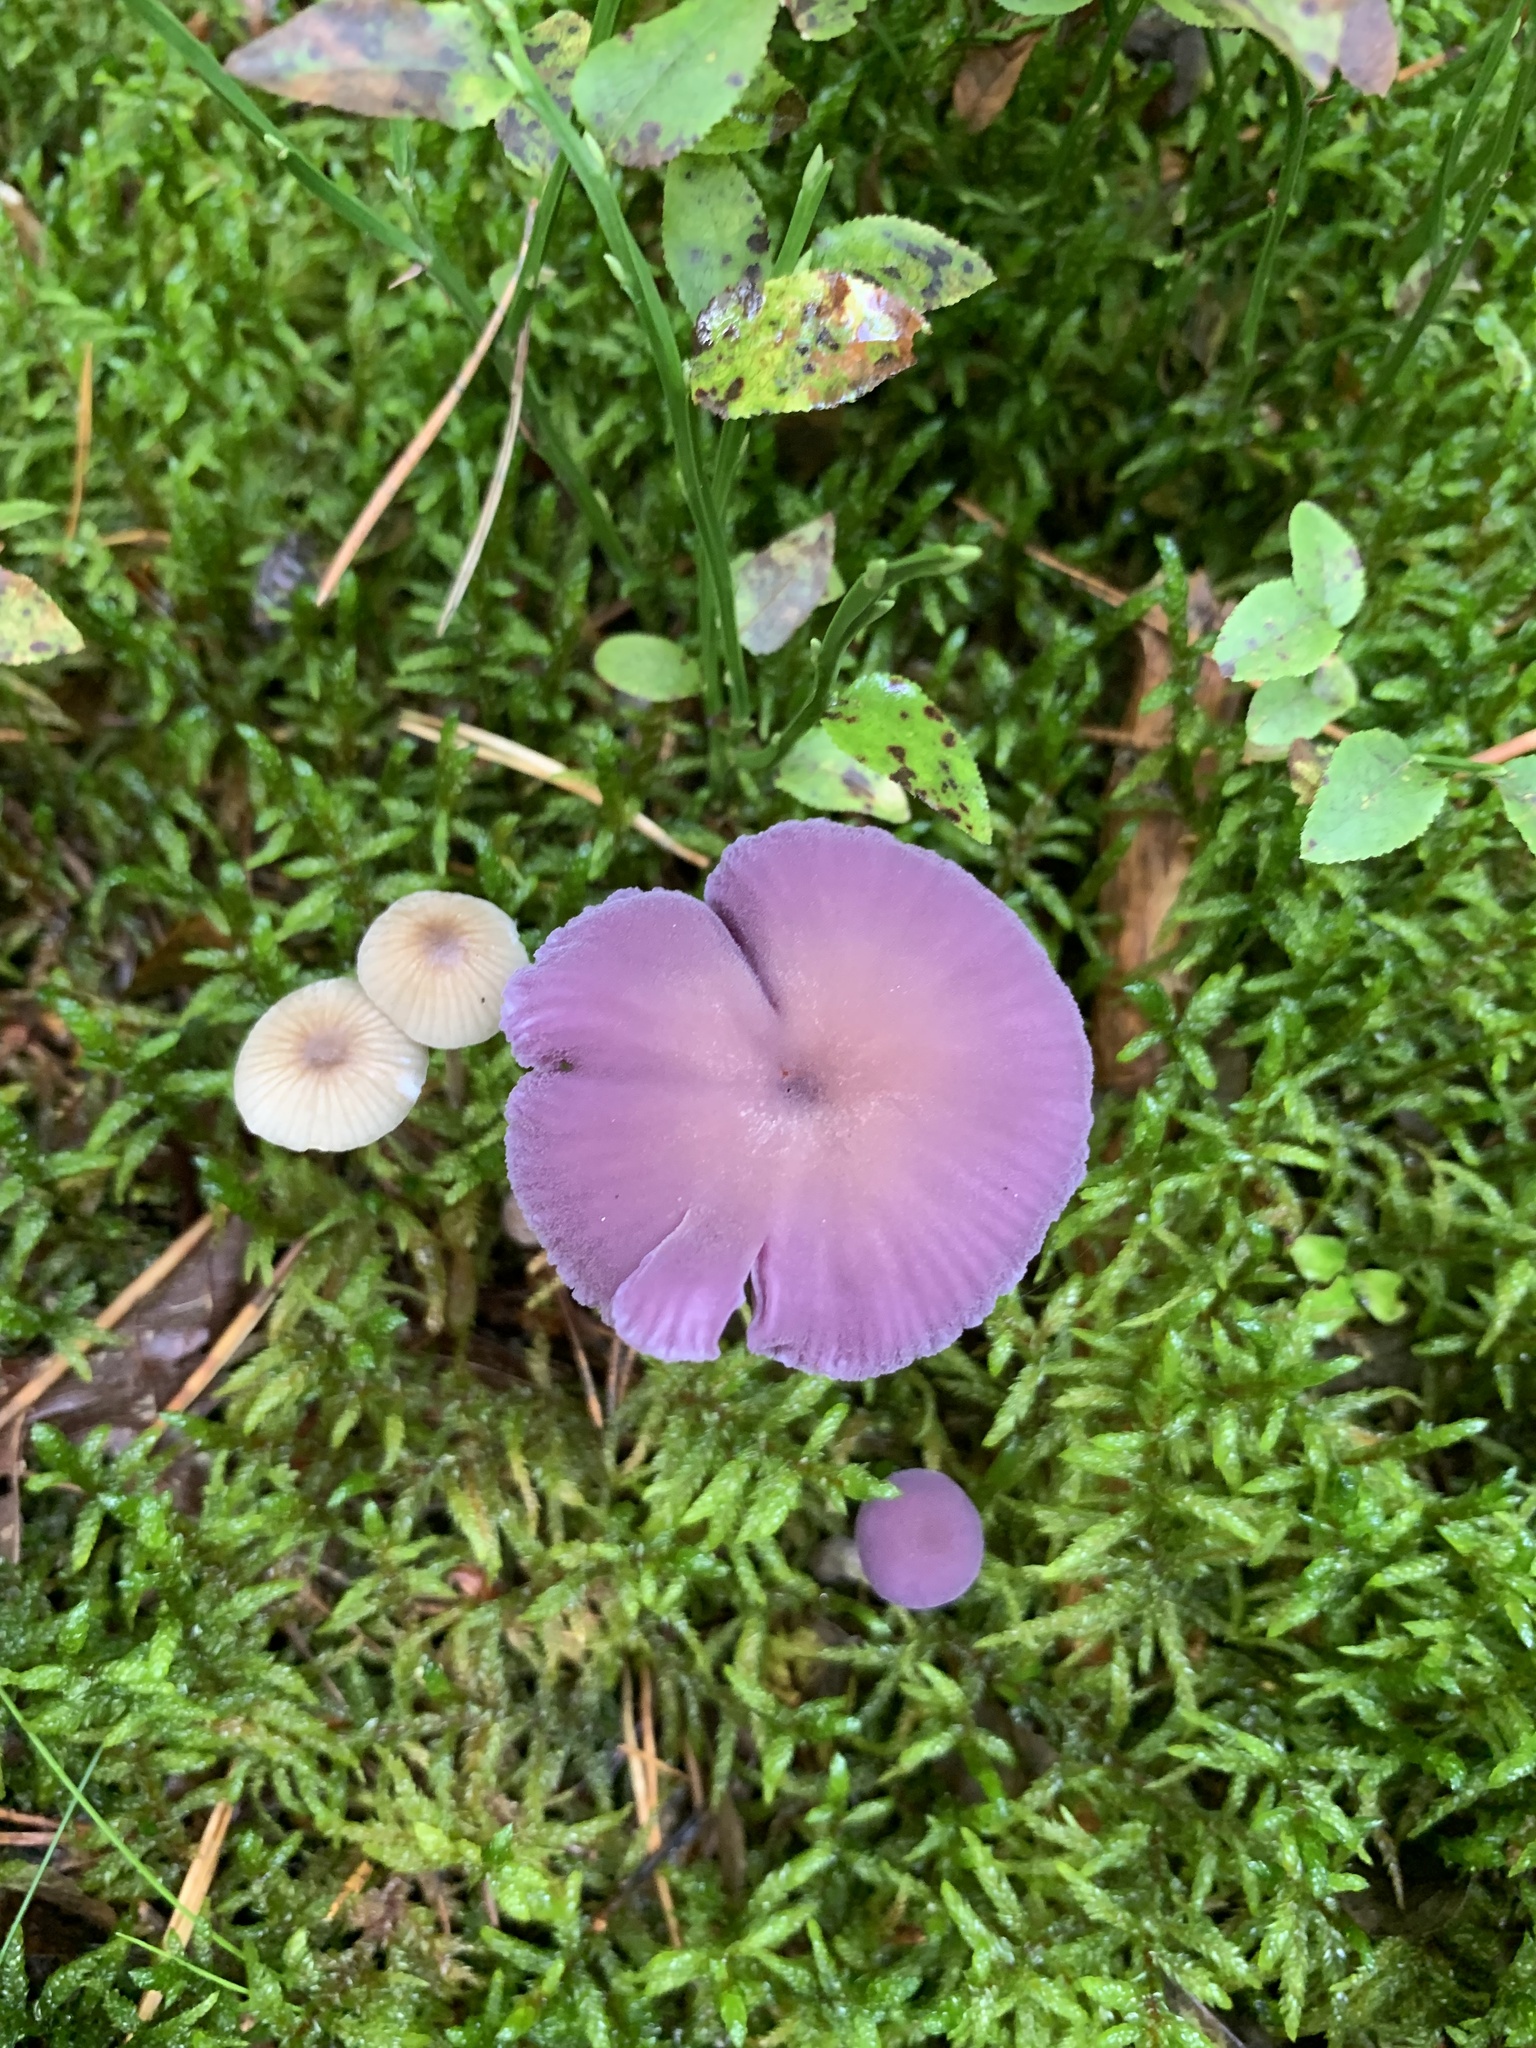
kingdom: Fungi
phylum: Basidiomycota
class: Agaricomycetes
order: Agaricales
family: Hydnangiaceae
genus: Laccaria
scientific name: Laccaria amethystina
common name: Amethyst deceiver
